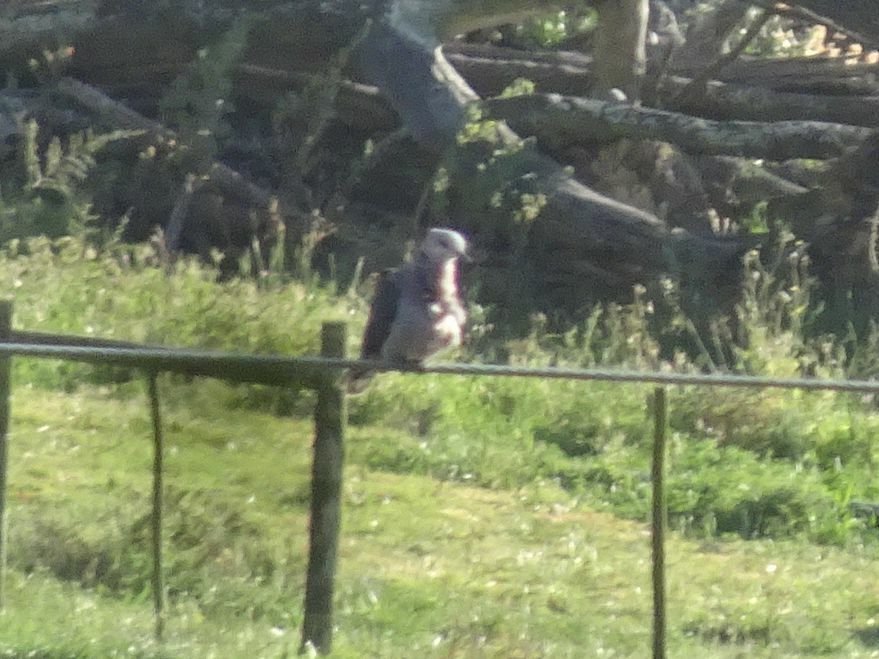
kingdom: Animalia
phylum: Chordata
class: Aves
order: Columbiformes
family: Columbidae
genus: Streptopelia
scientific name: Streptopelia semitorquata
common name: Red-eyed dove
